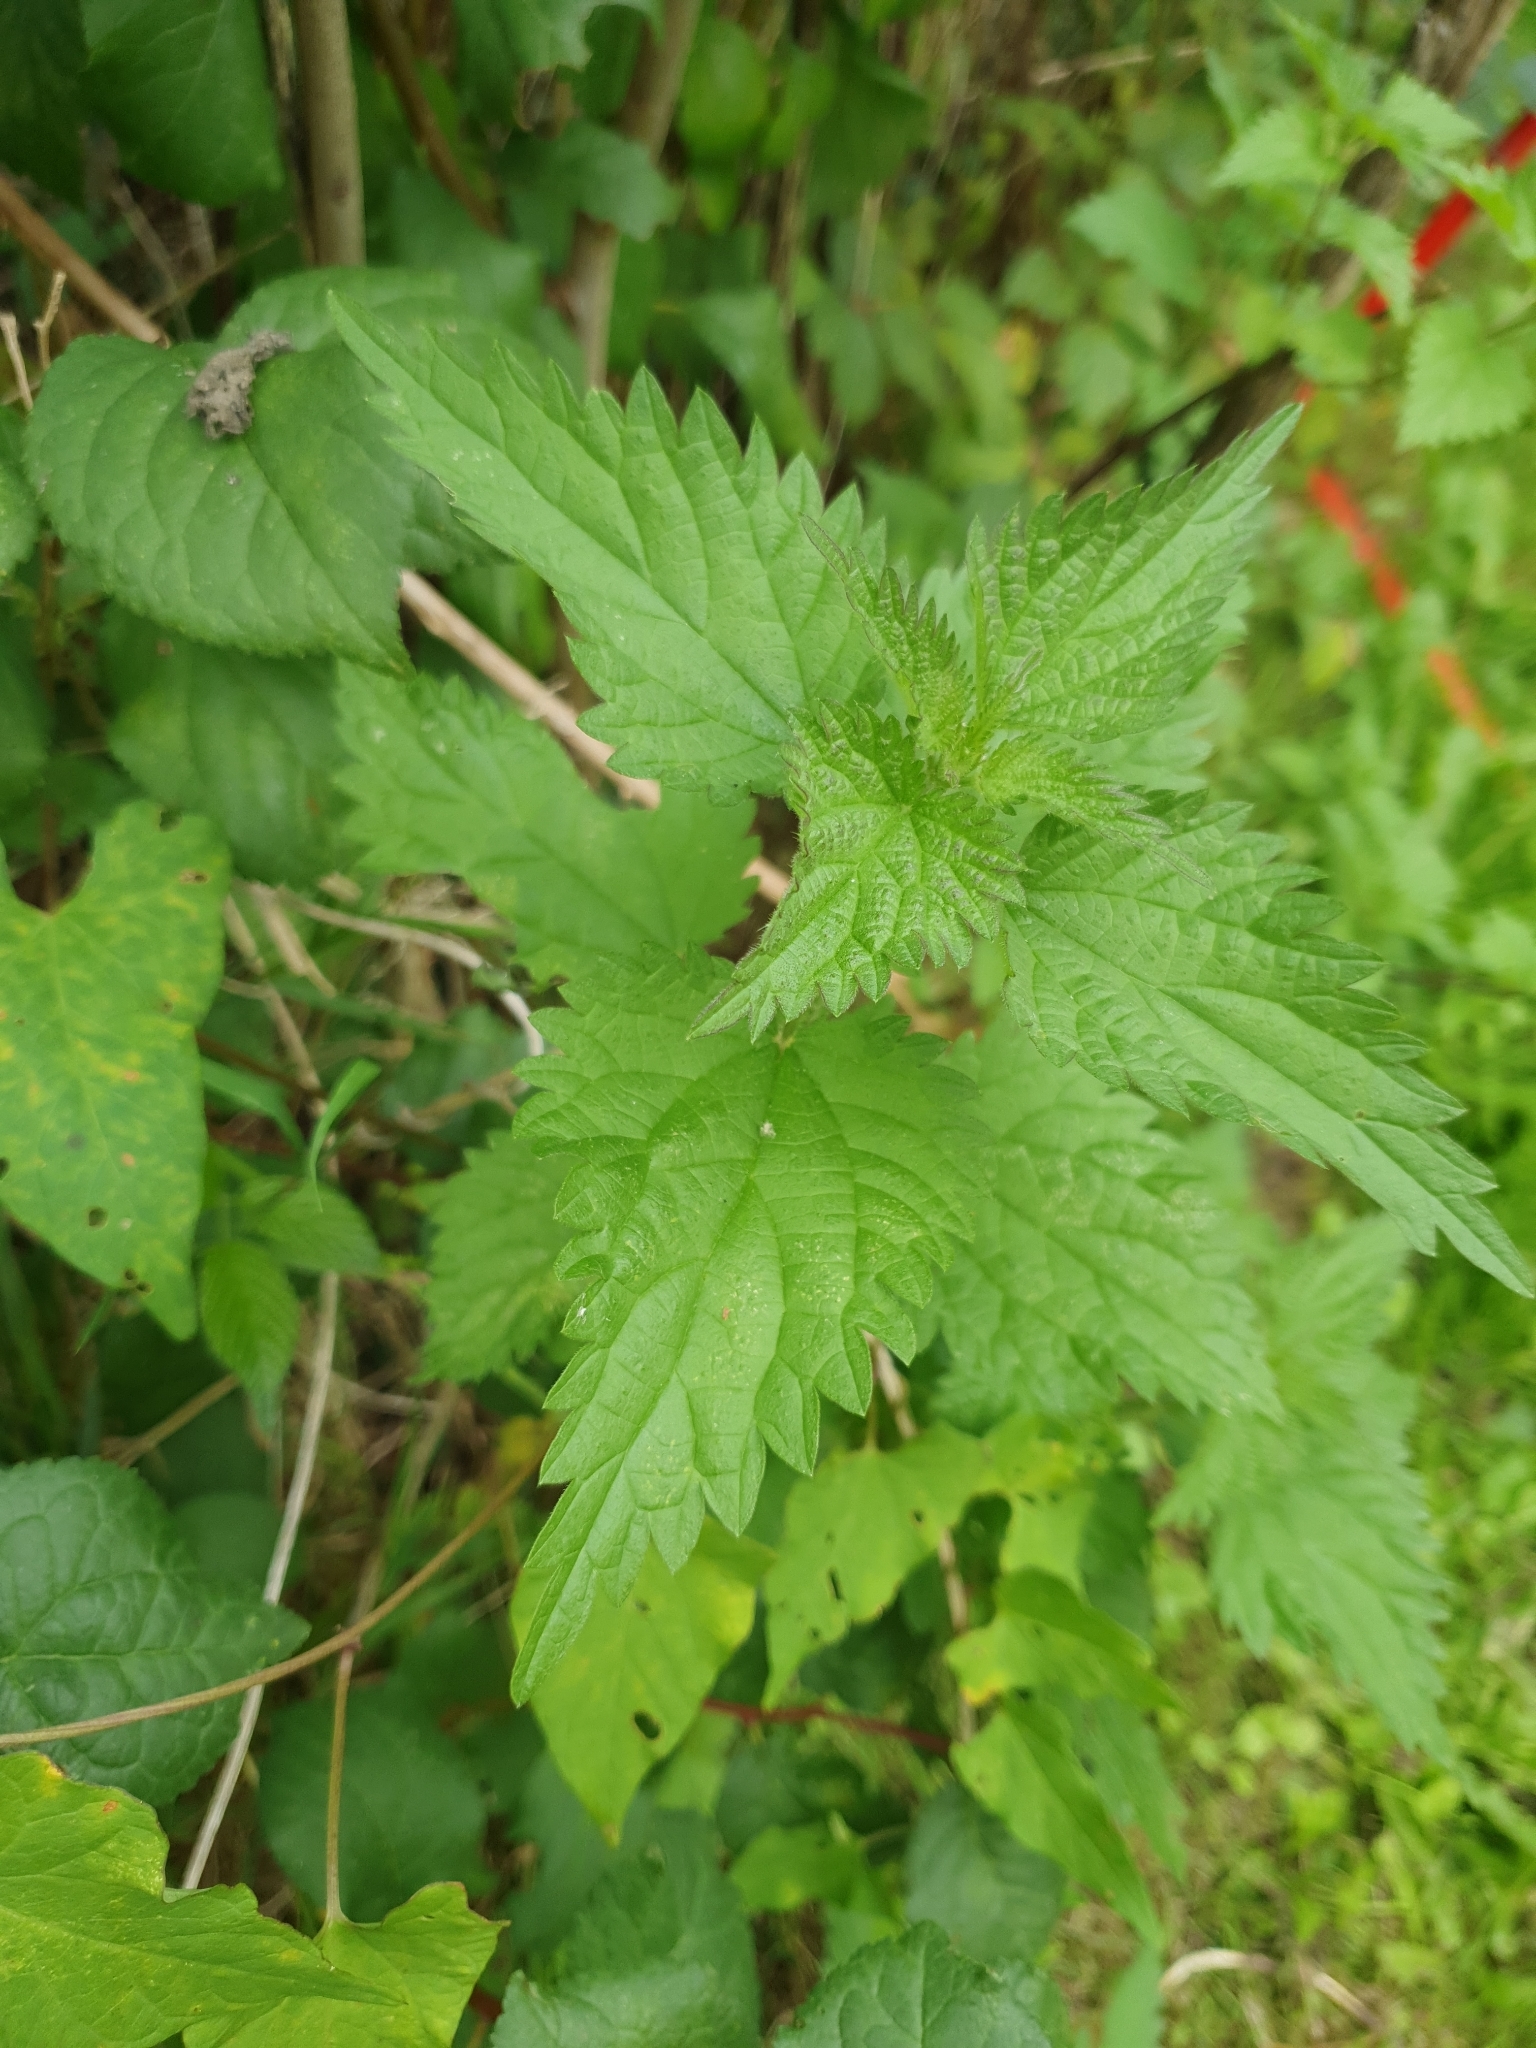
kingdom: Plantae
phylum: Tracheophyta
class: Magnoliopsida
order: Rosales
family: Urticaceae
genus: Urtica
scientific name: Urtica dioica
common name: Common nettle
